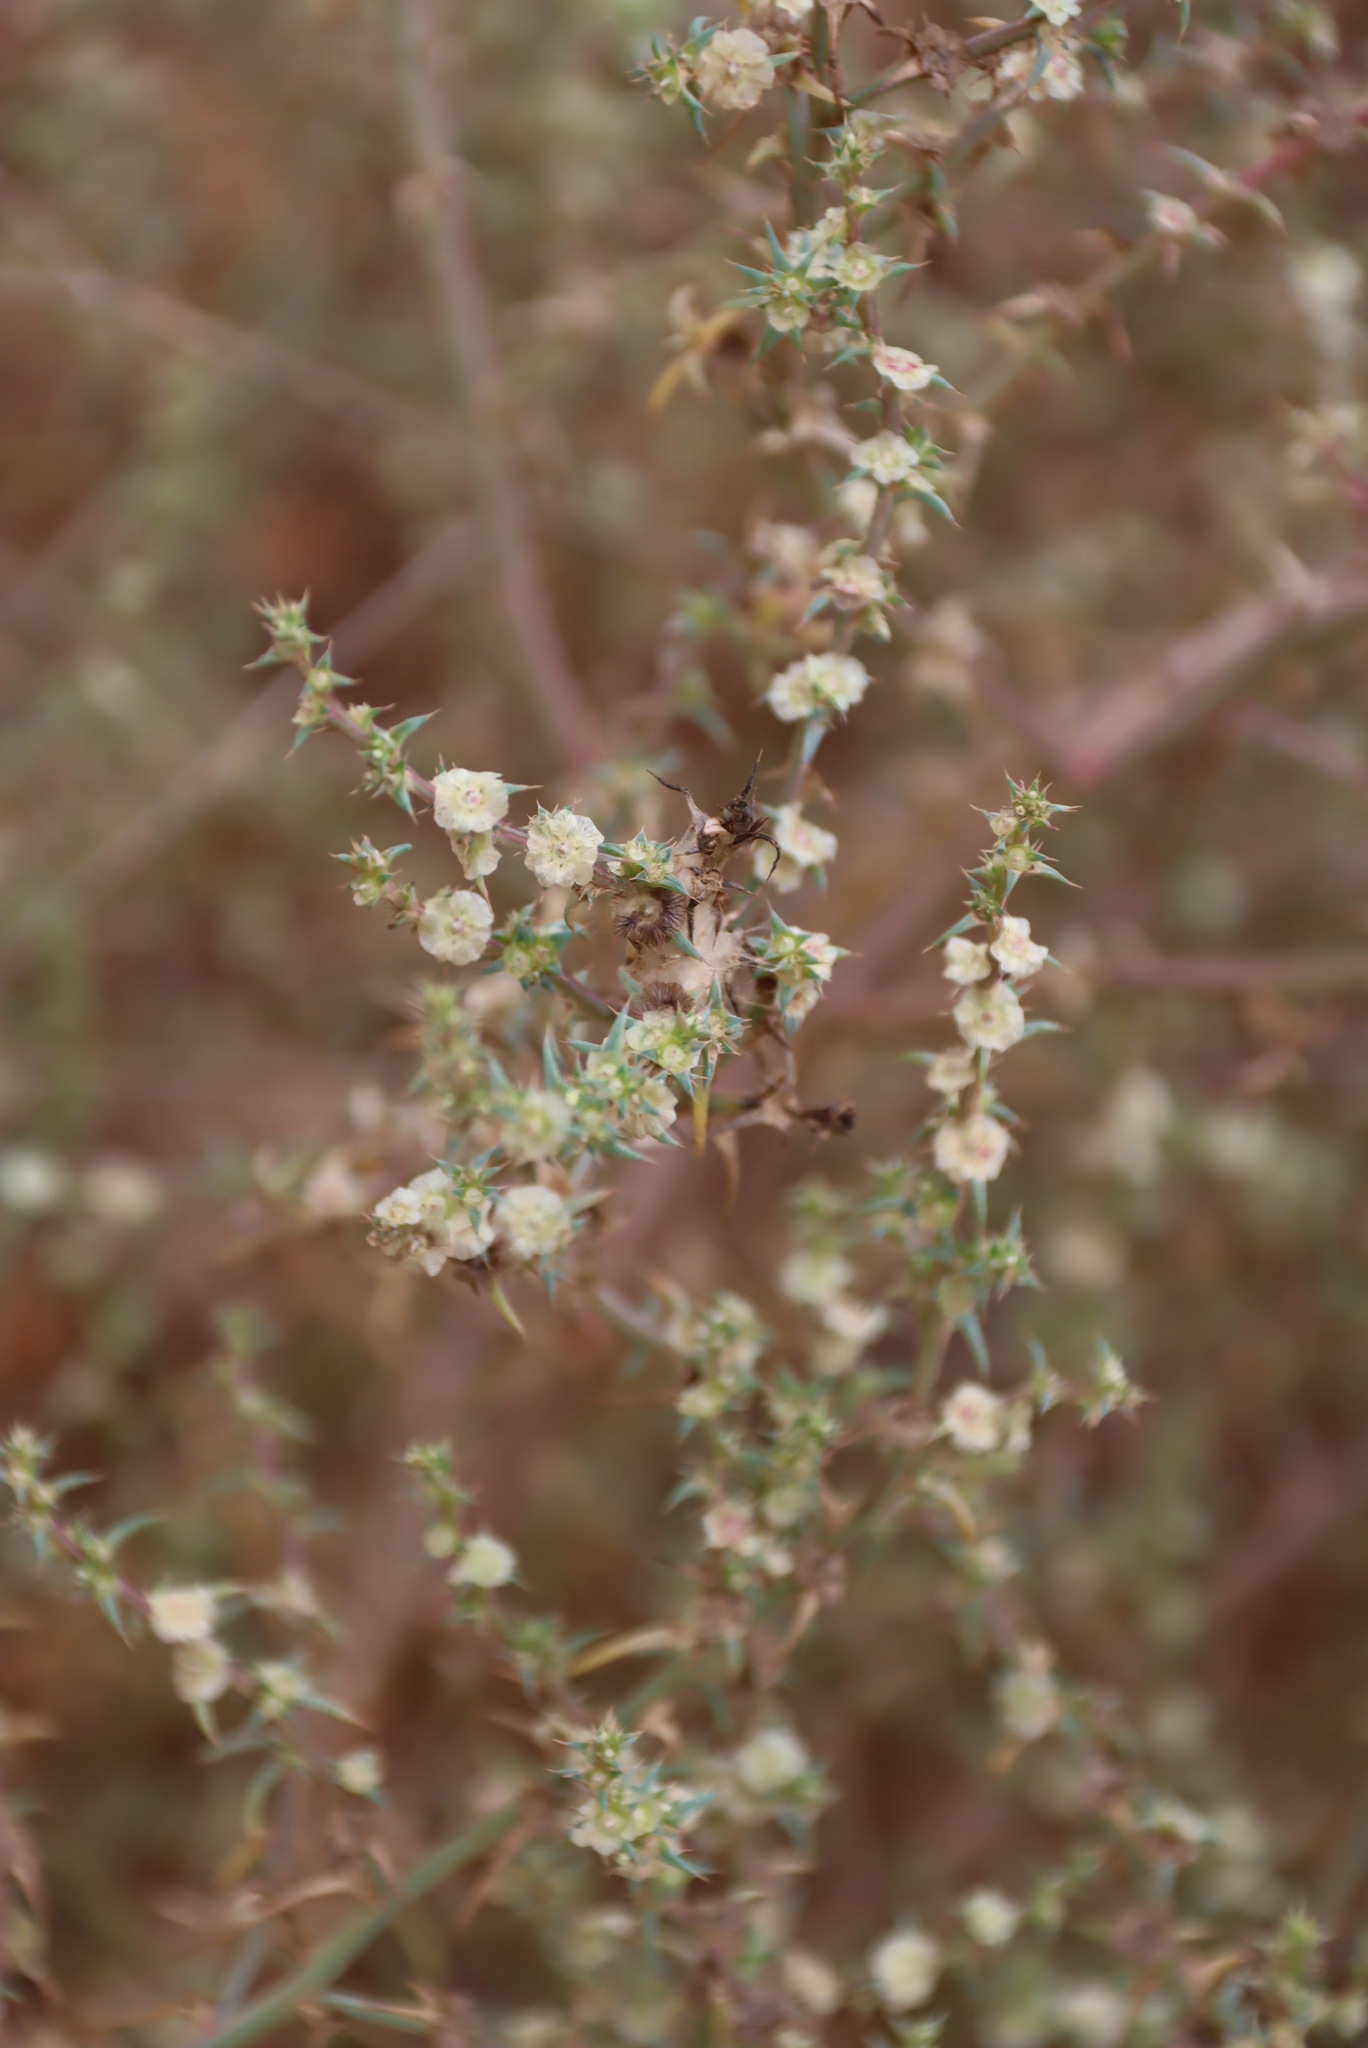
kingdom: Plantae
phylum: Tracheophyta
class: Magnoliopsida
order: Caryophyllales
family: Amaranthaceae
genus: Salsola
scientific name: Salsola kali
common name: Saltwort
